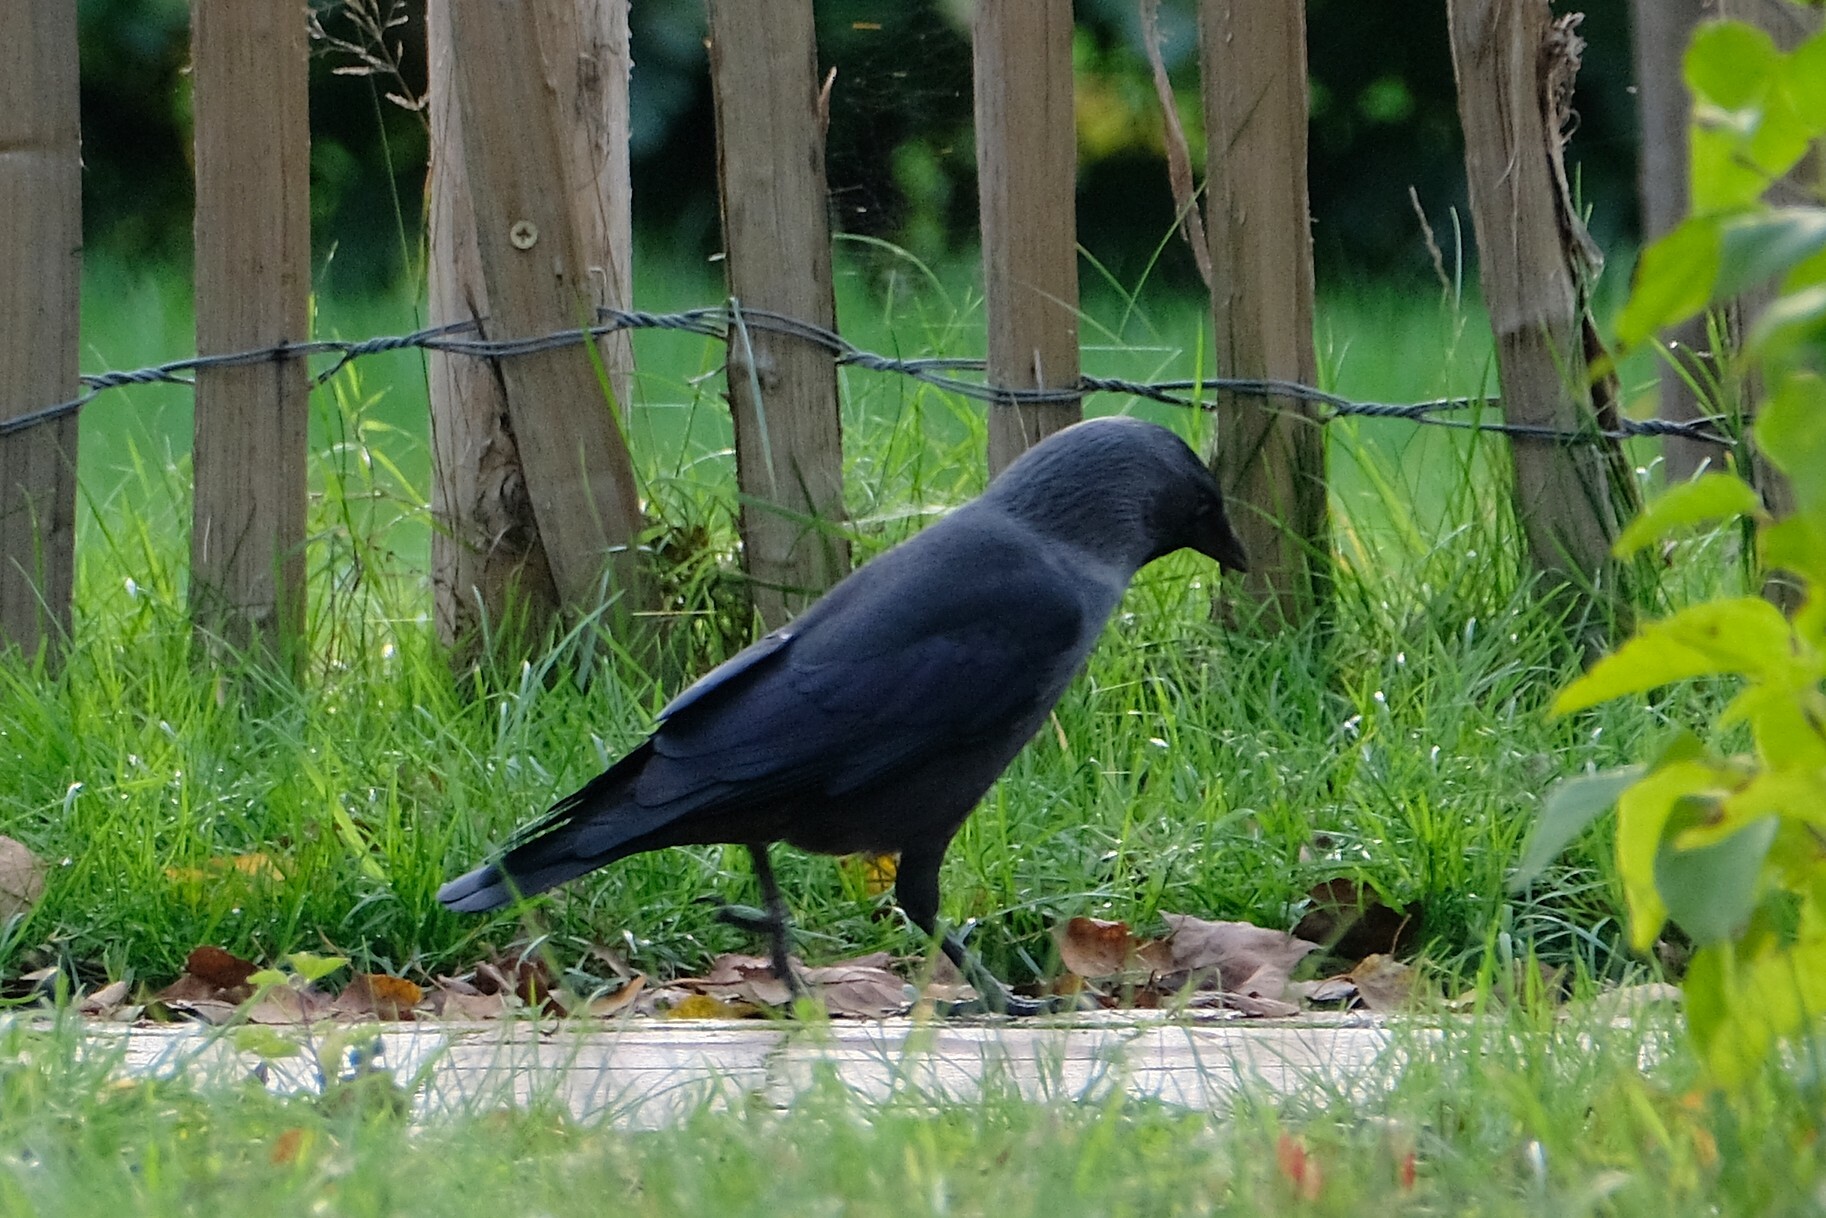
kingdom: Animalia
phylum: Chordata
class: Aves
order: Passeriformes
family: Corvidae
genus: Coloeus
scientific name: Coloeus monedula
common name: Western jackdaw
